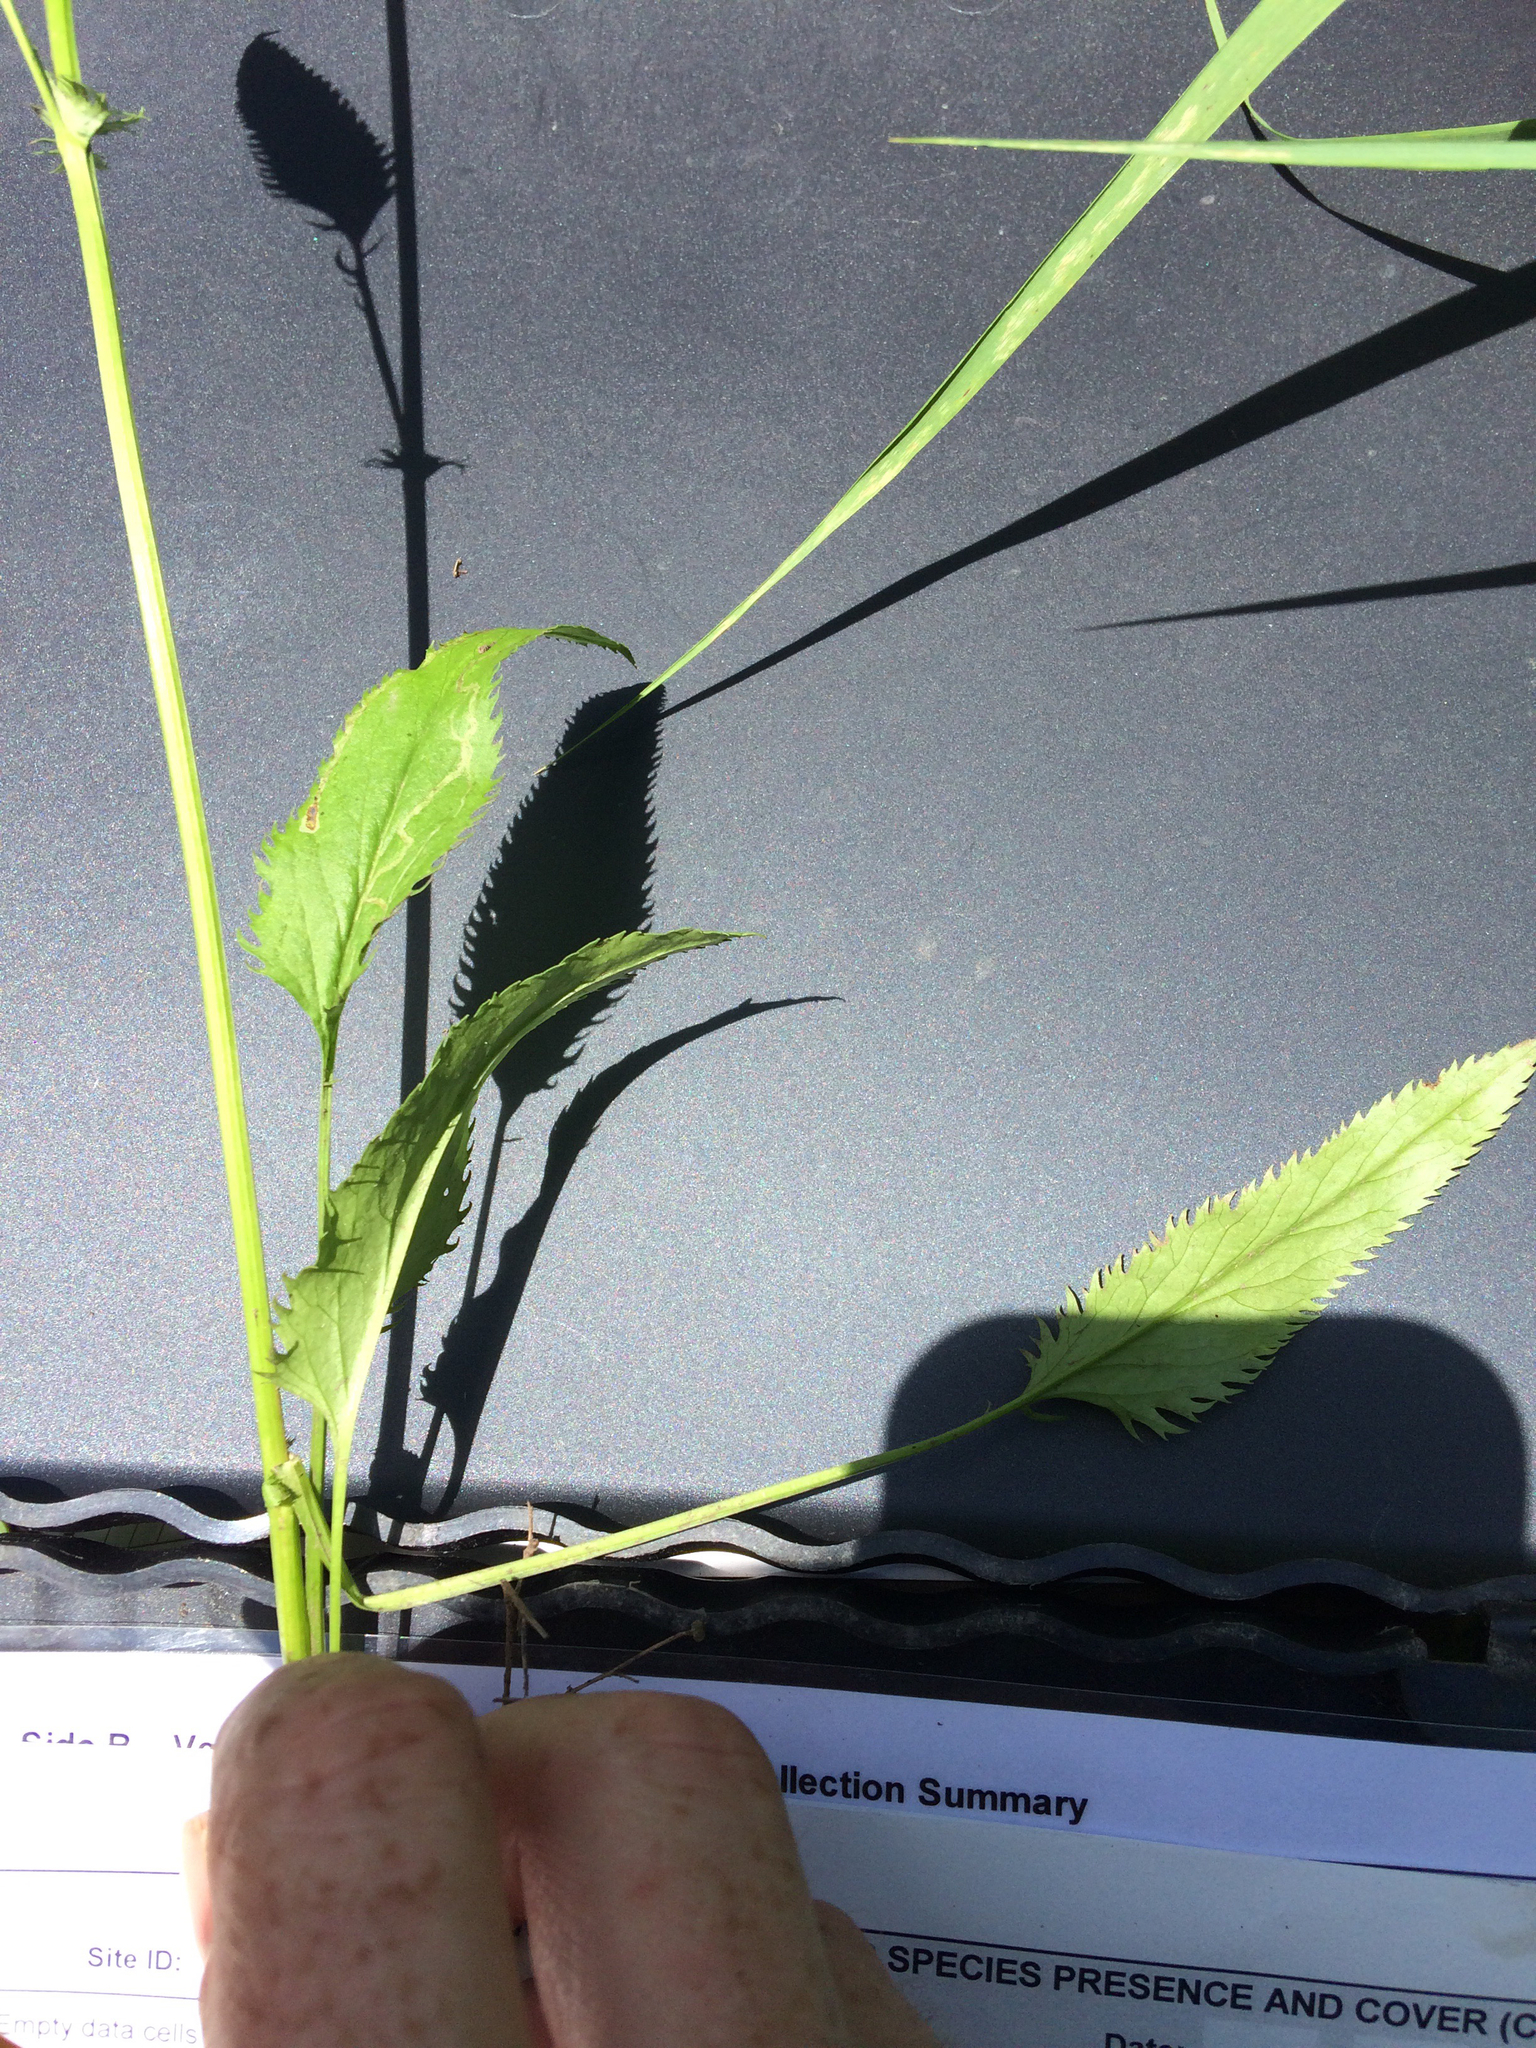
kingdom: Plantae
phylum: Tracheophyta
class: Magnoliopsida
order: Asterales
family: Asteraceae
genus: Packera
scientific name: Packera schweinitziana
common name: Schweinitz's ragwort
